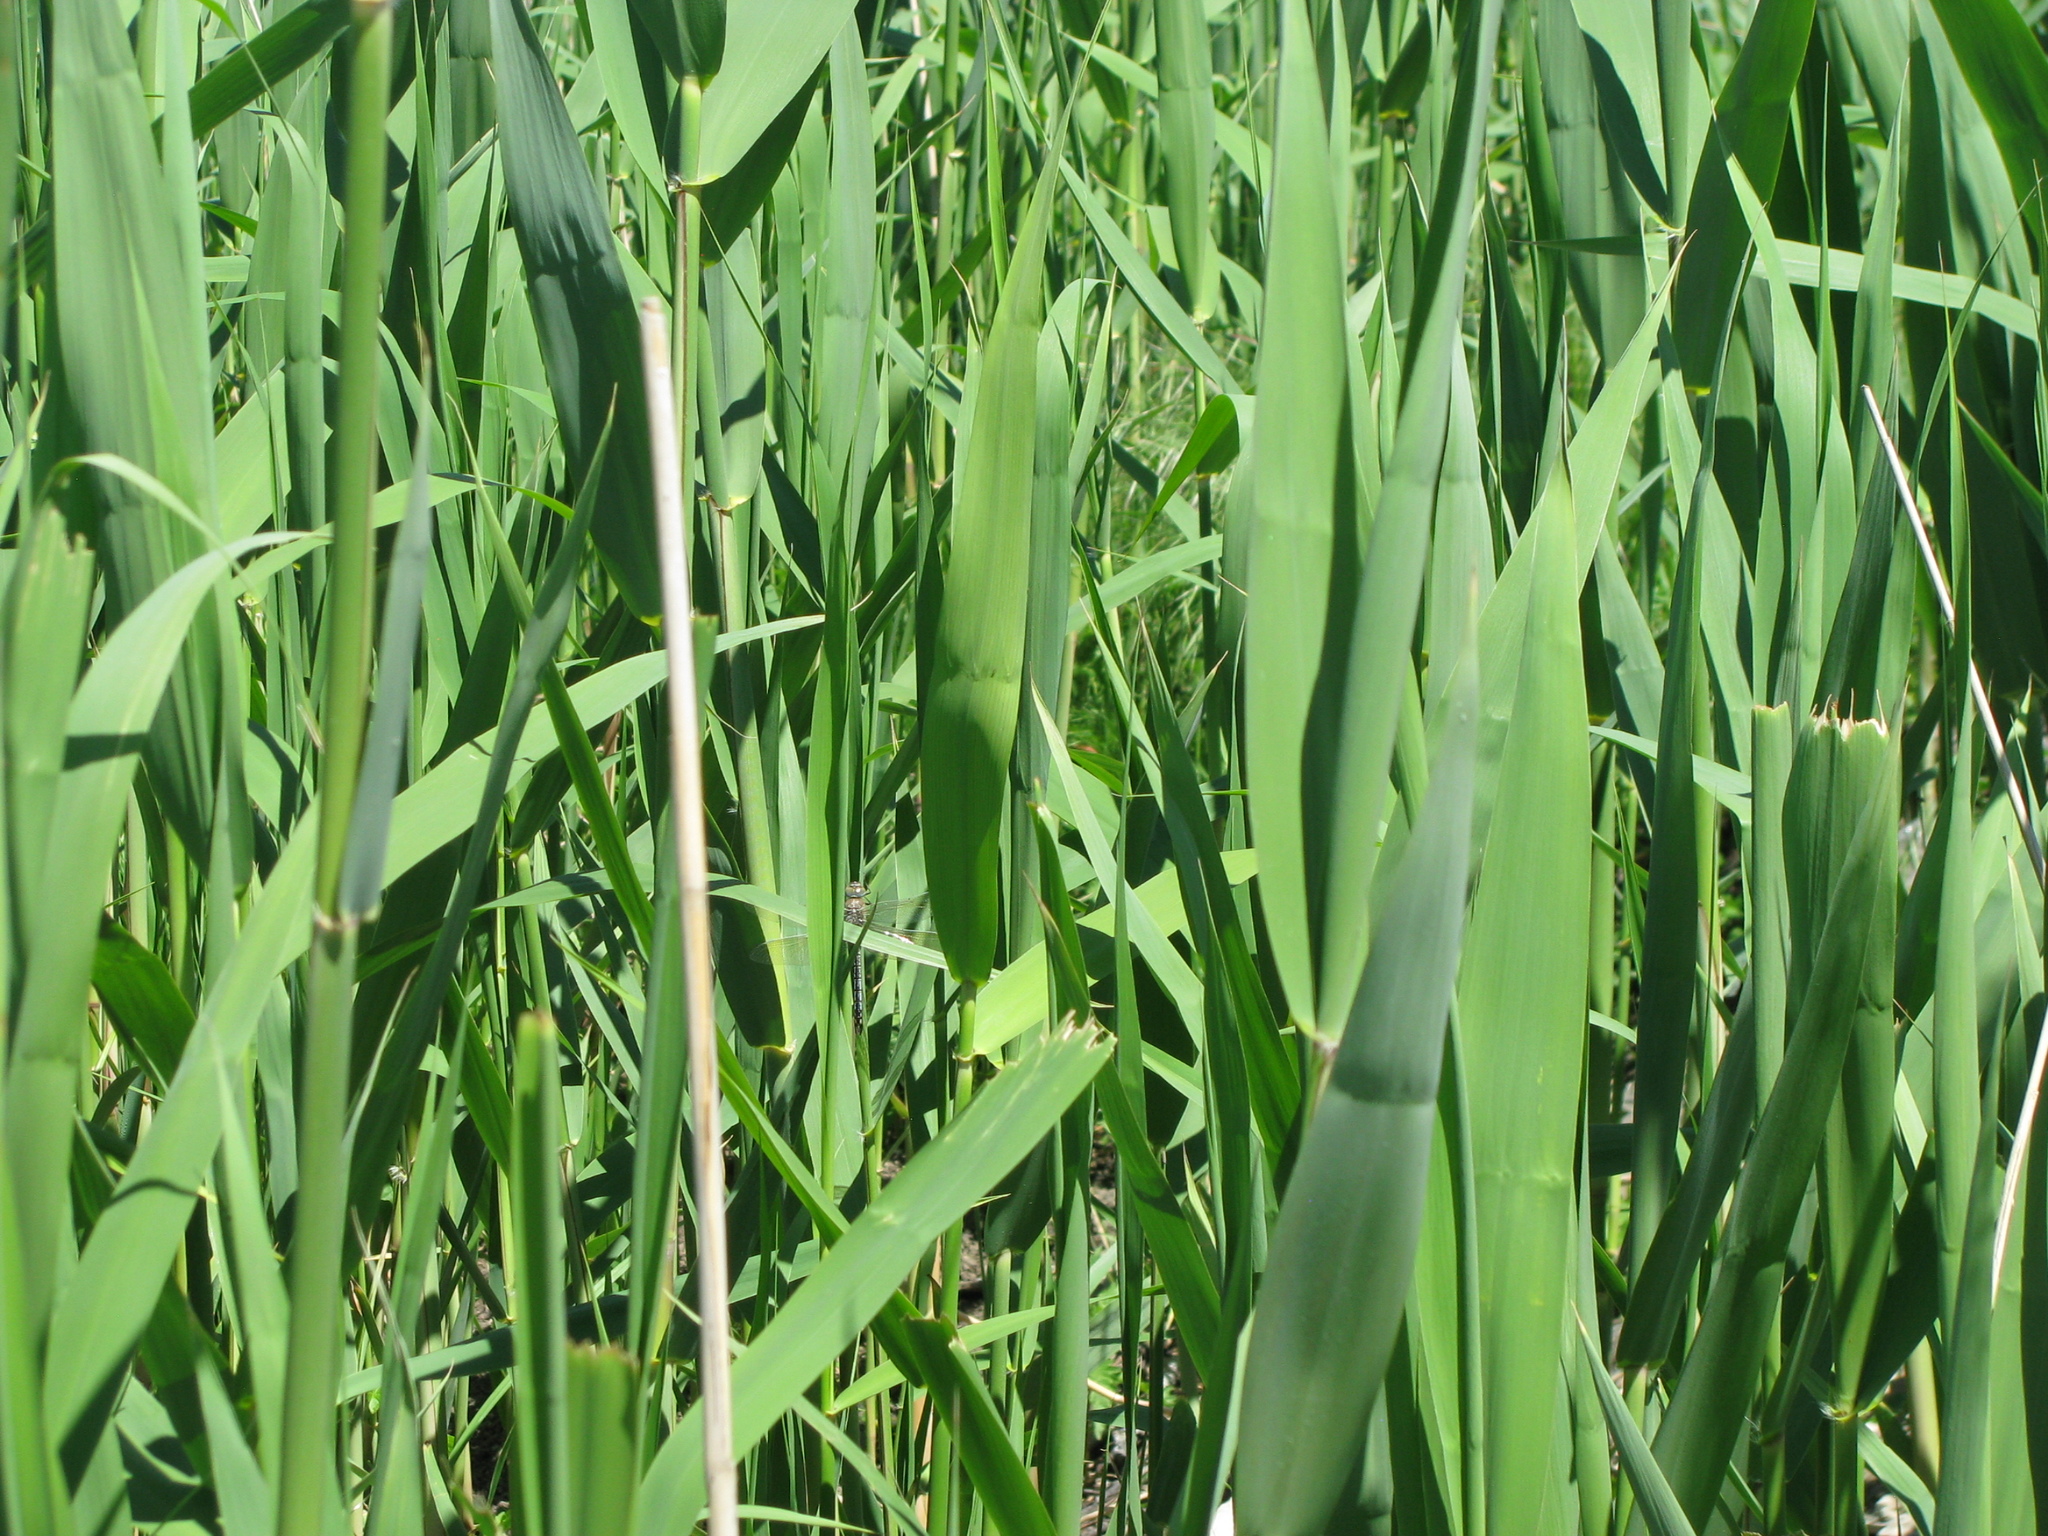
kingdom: Animalia
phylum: Arthropoda
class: Insecta
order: Odonata
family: Aeshnidae
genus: Anax
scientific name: Anax parthenope
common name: Lesser emperor
